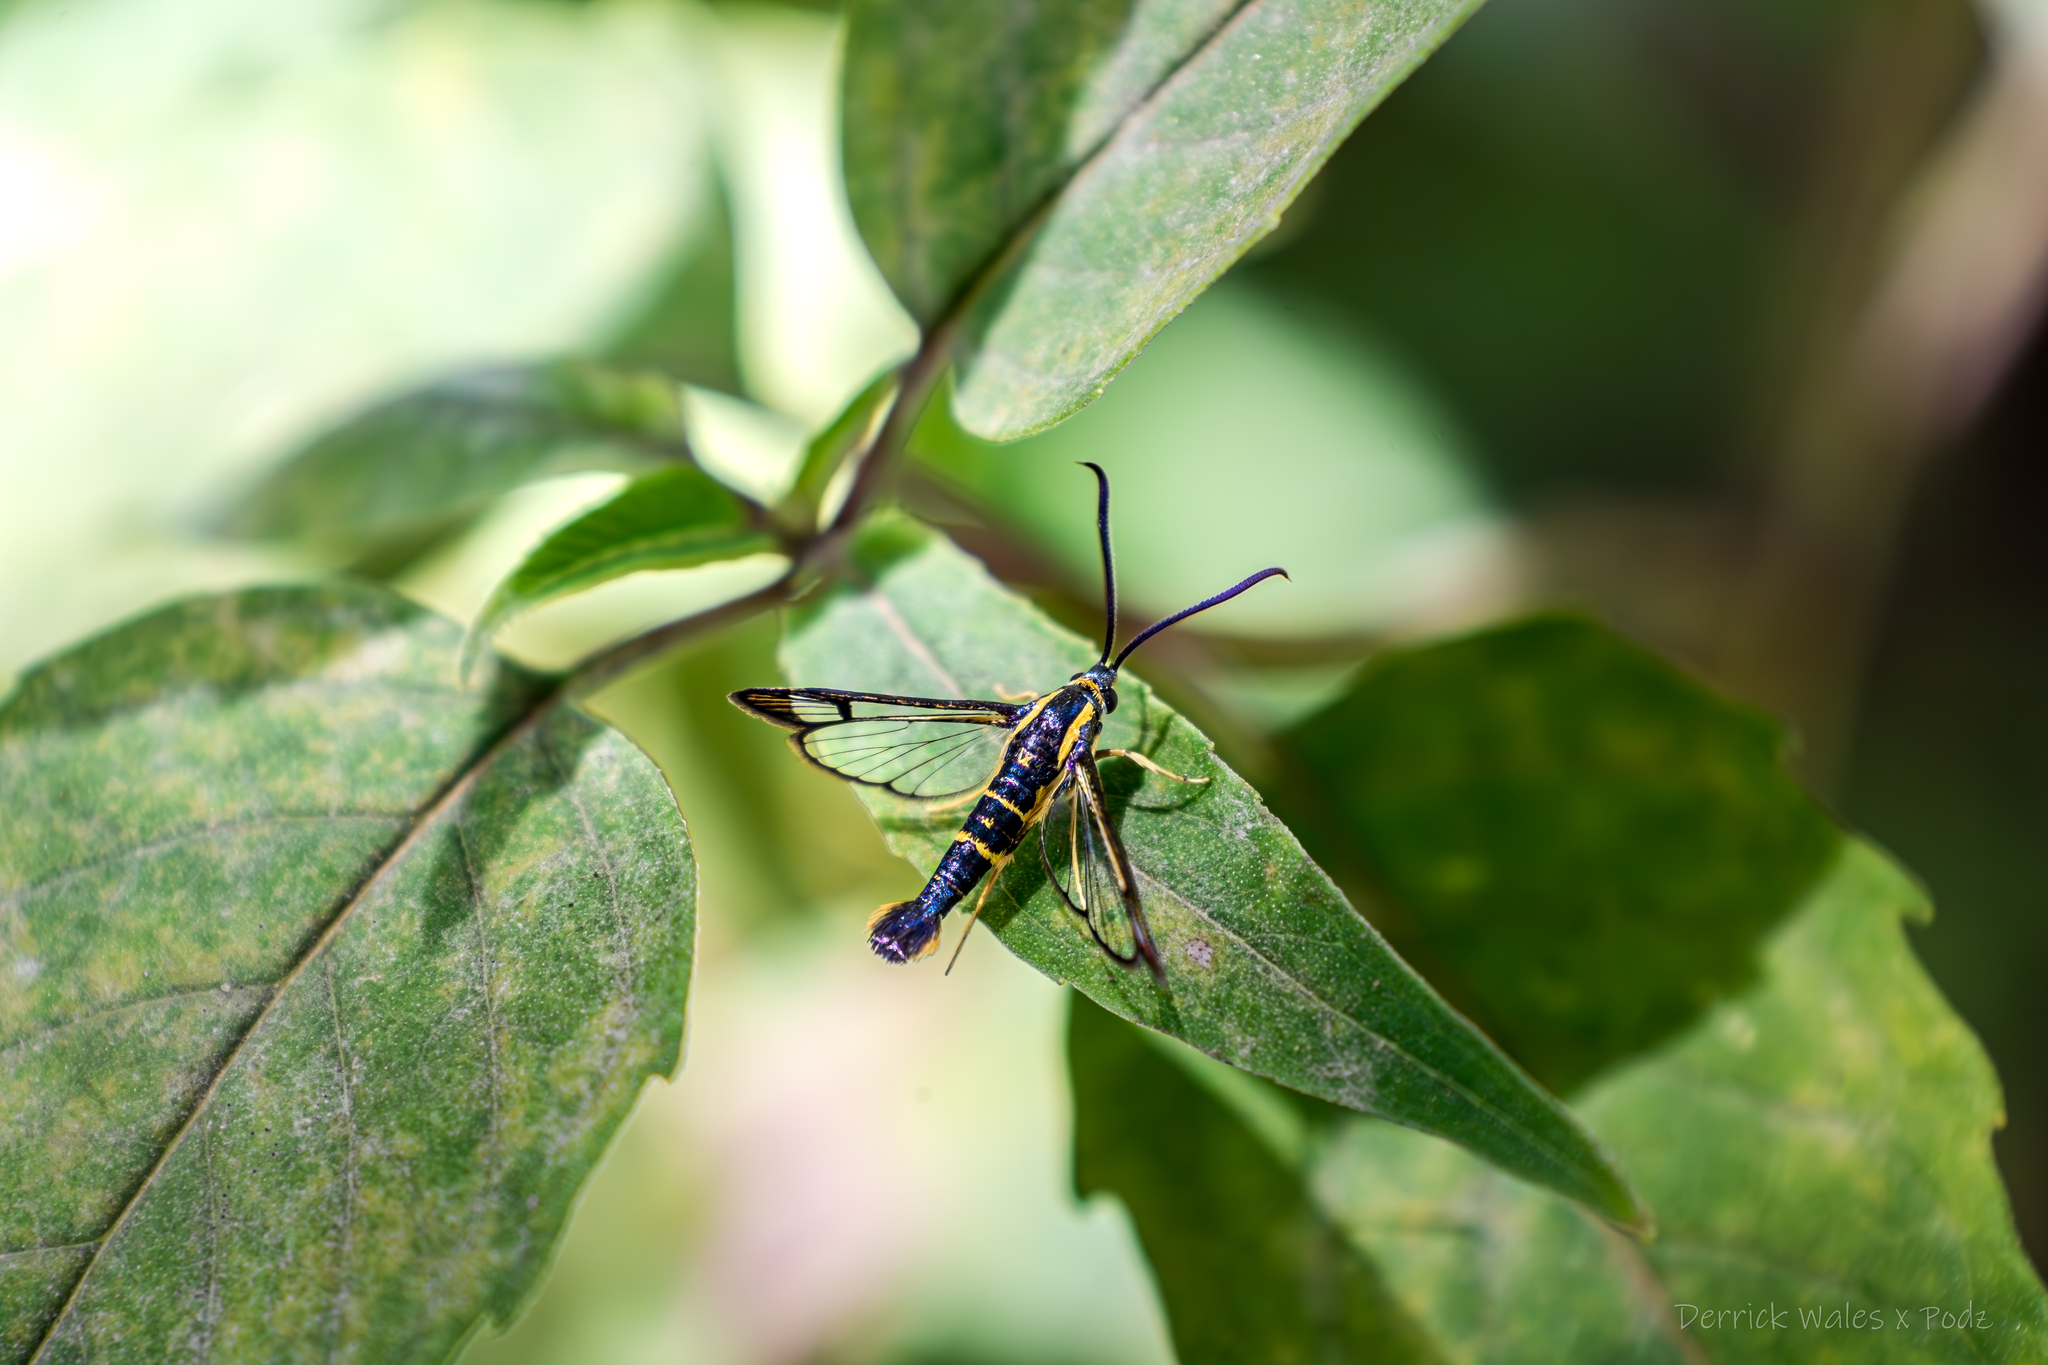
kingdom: Animalia
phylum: Arthropoda
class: Insecta
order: Lepidoptera
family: Sesiidae
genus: Synanthedon
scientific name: Synanthedon scitula
